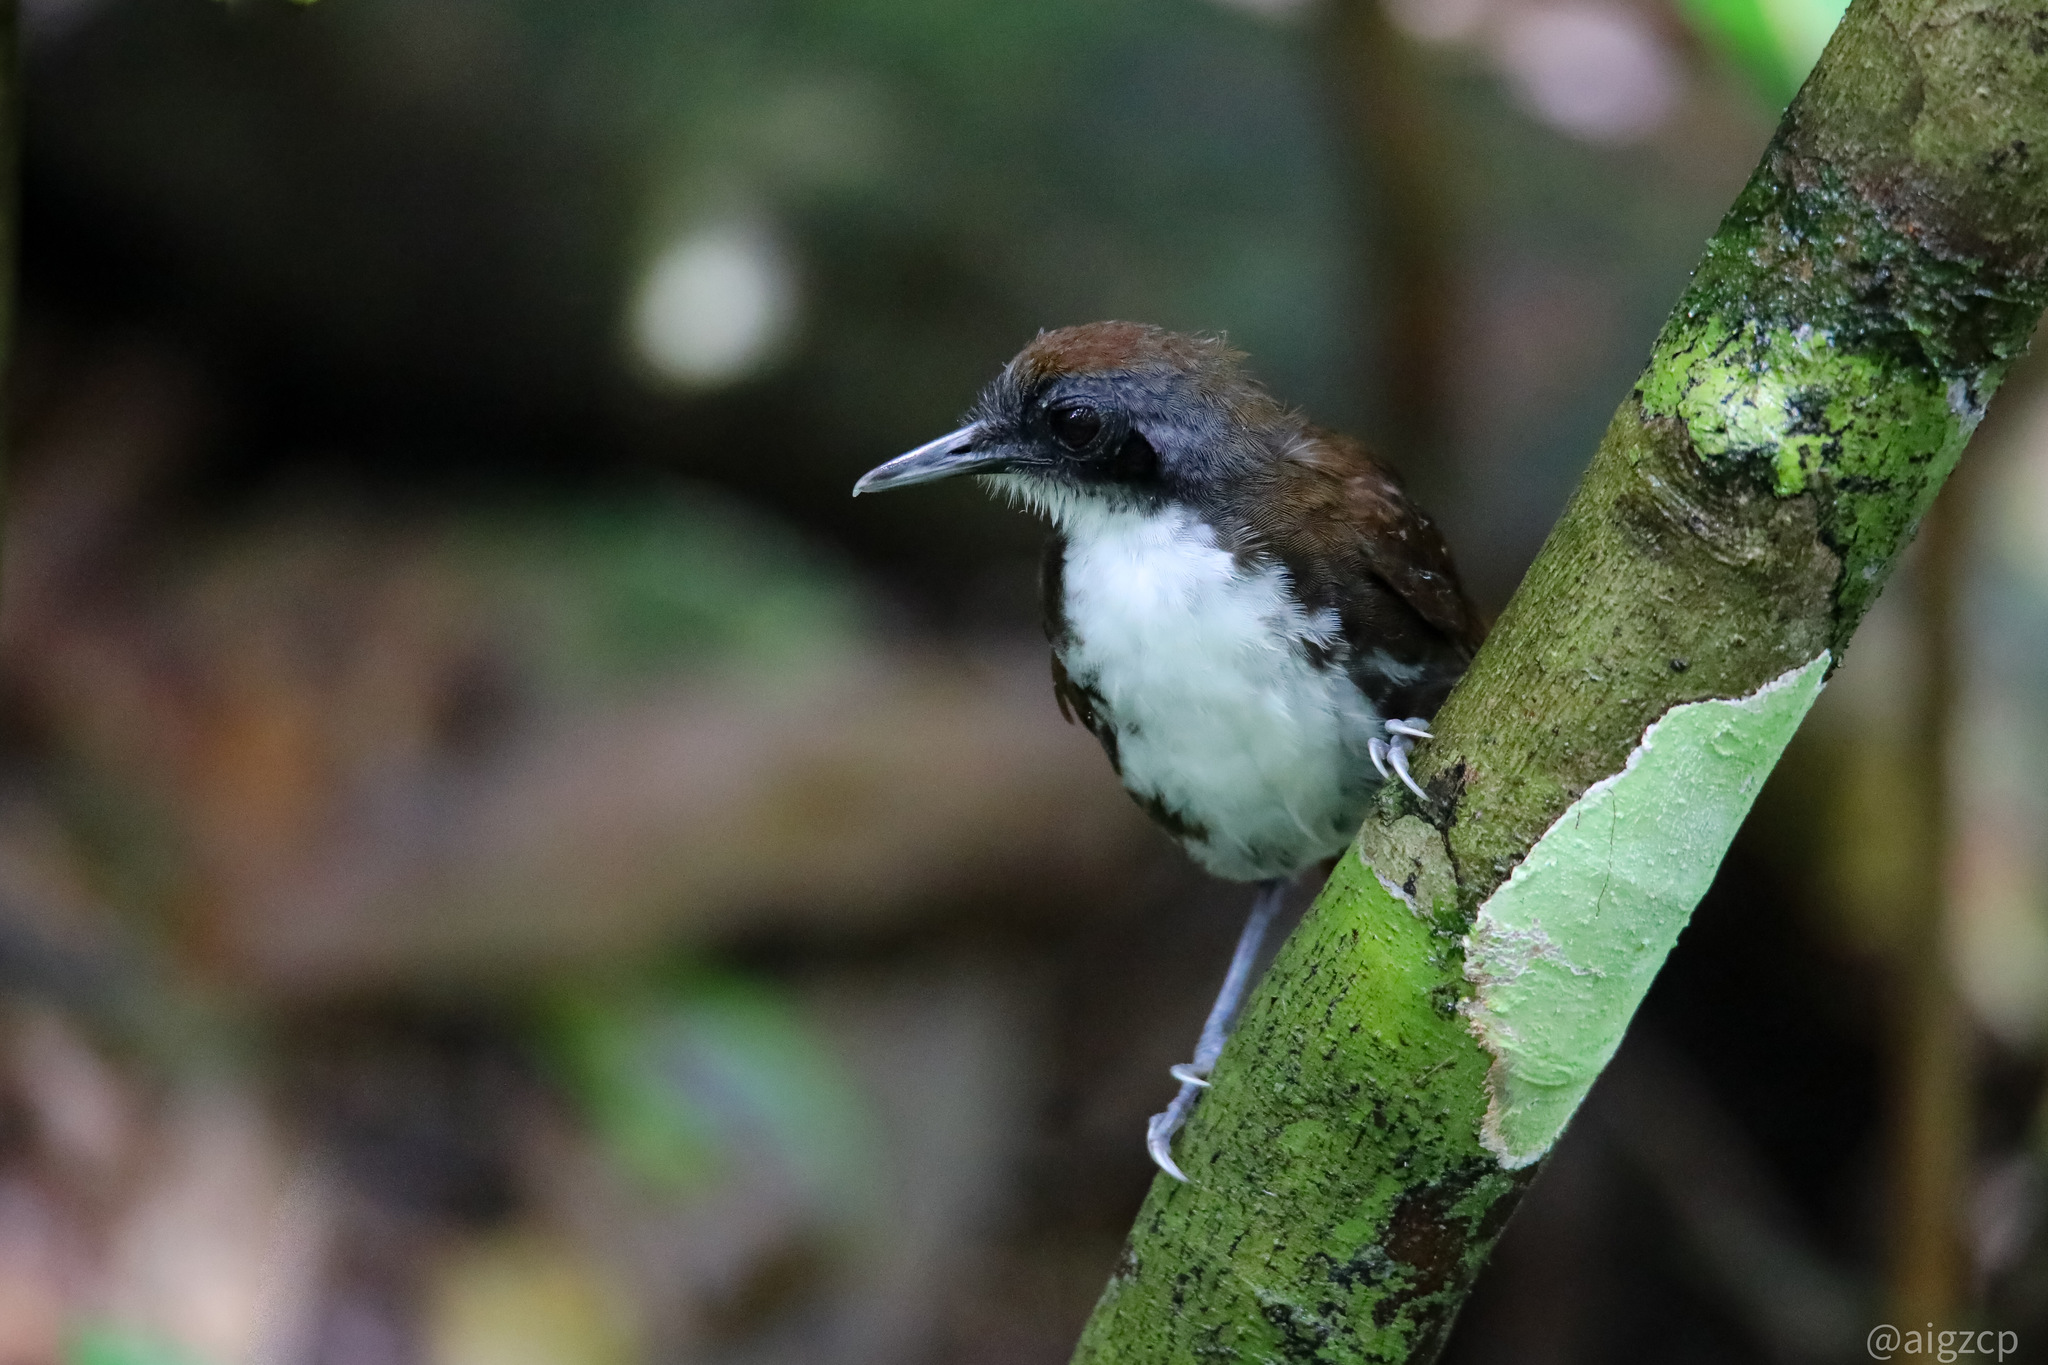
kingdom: Animalia
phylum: Chordata
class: Aves
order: Passeriformes
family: Thamnophilidae
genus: Gymnopithys
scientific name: Gymnopithys leucaspis
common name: White-cheeked antbird
